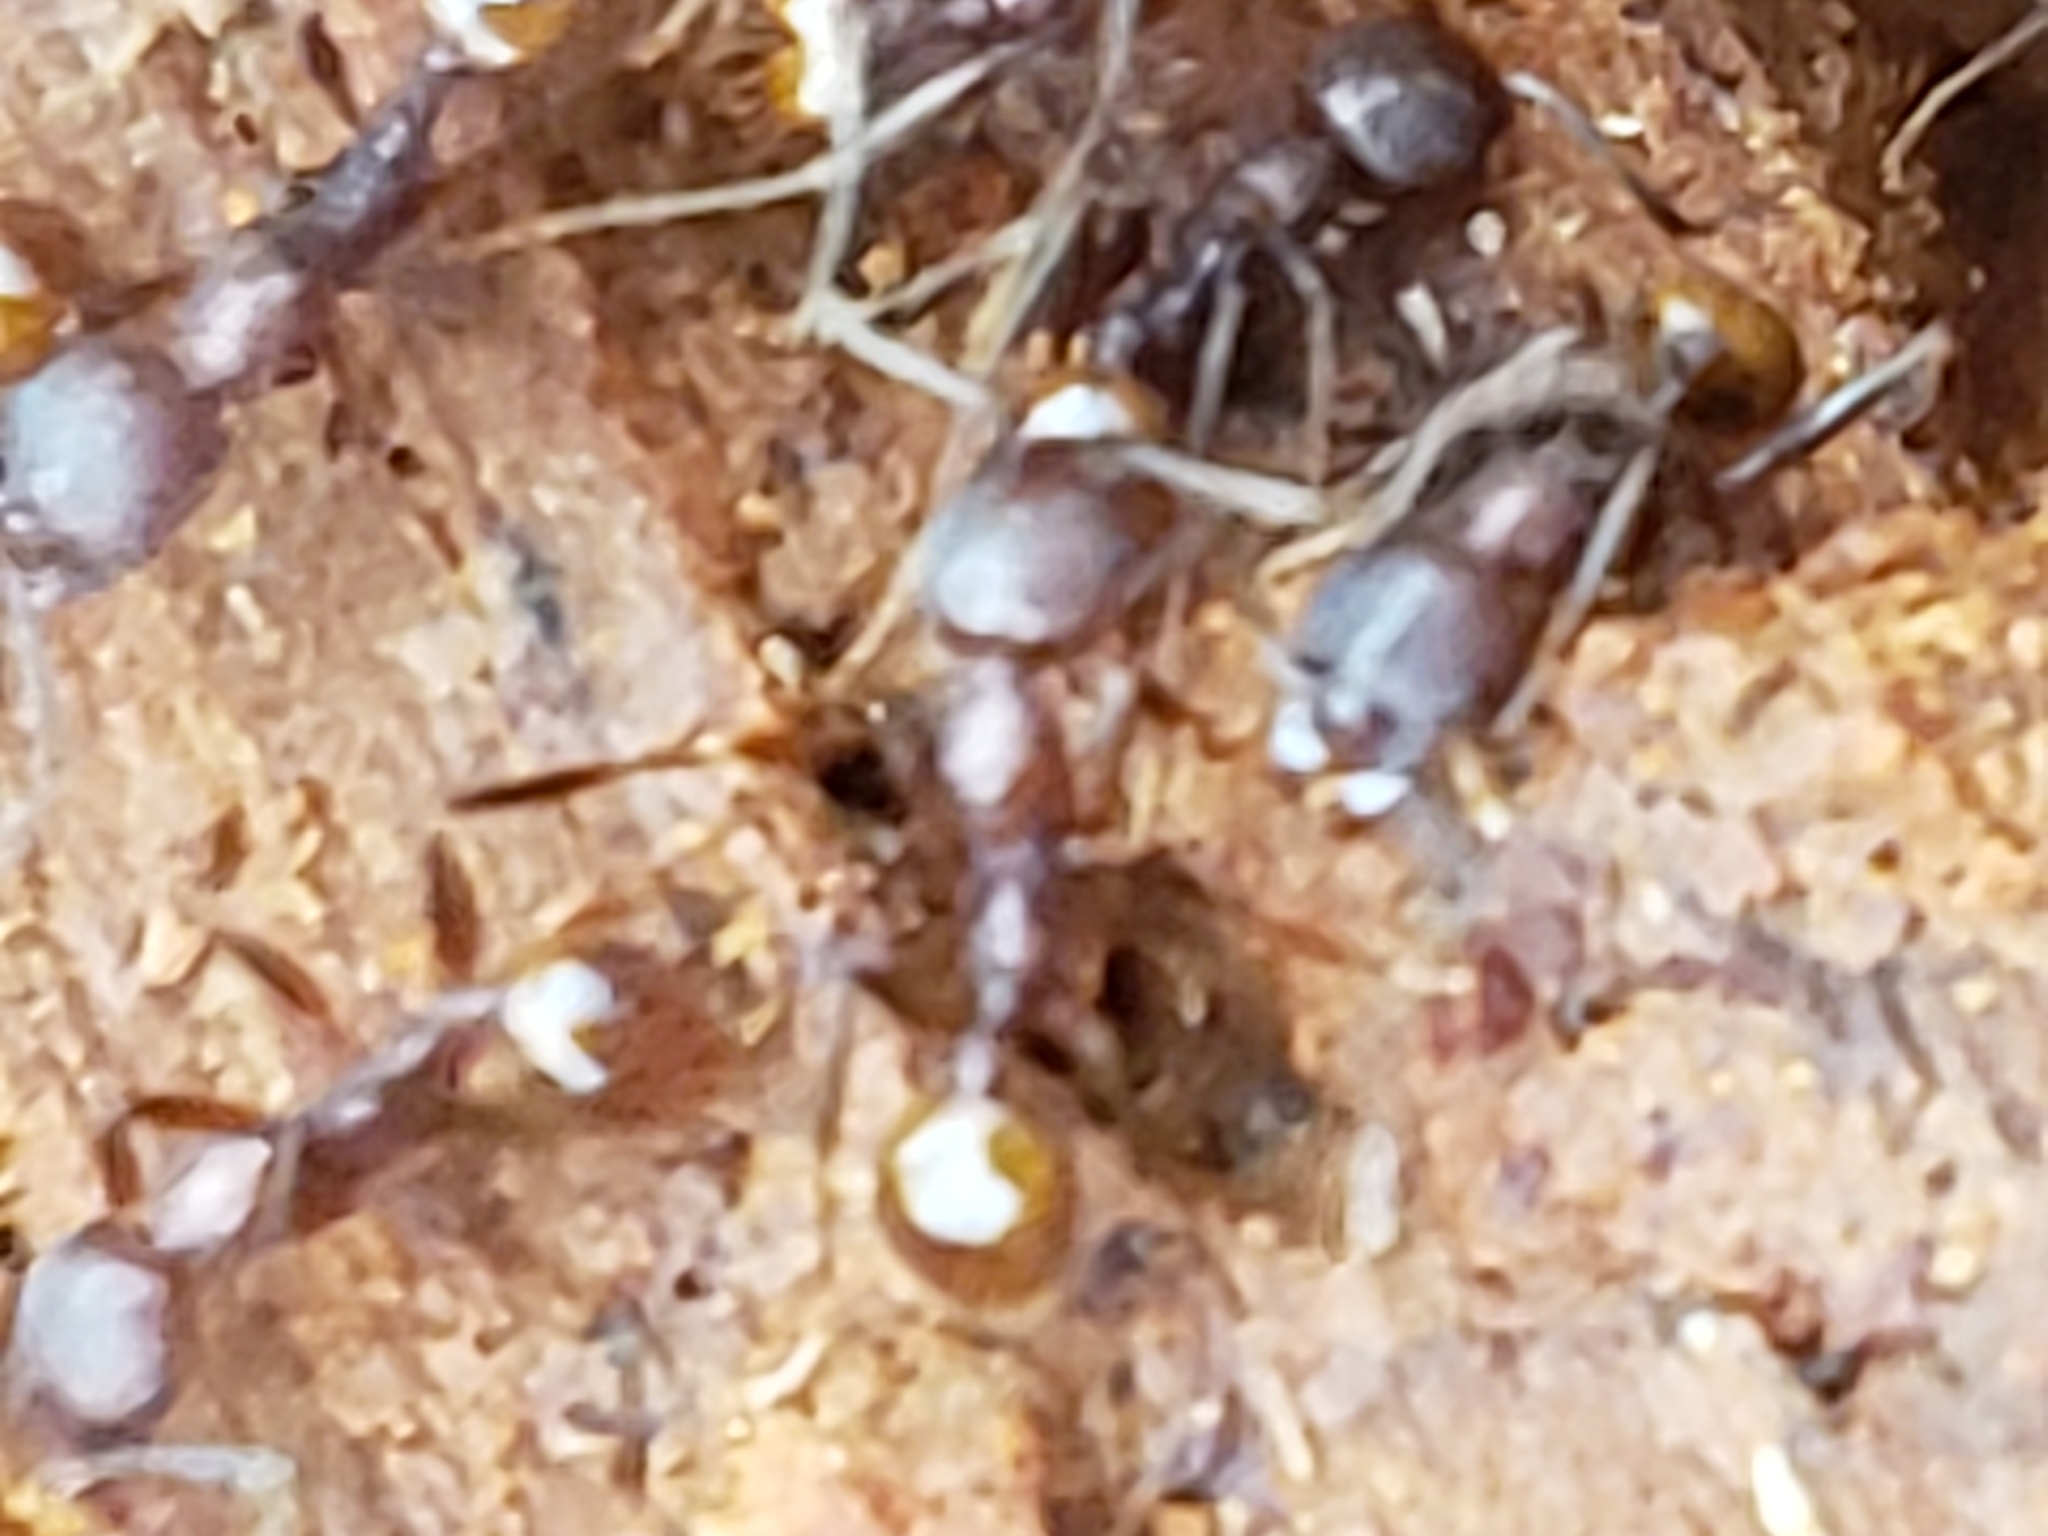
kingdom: Animalia
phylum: Arthropoda
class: Insecta
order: Hymenoptera
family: Formicidae
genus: Aphaenogaster
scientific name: Aphaenogaster fulva
